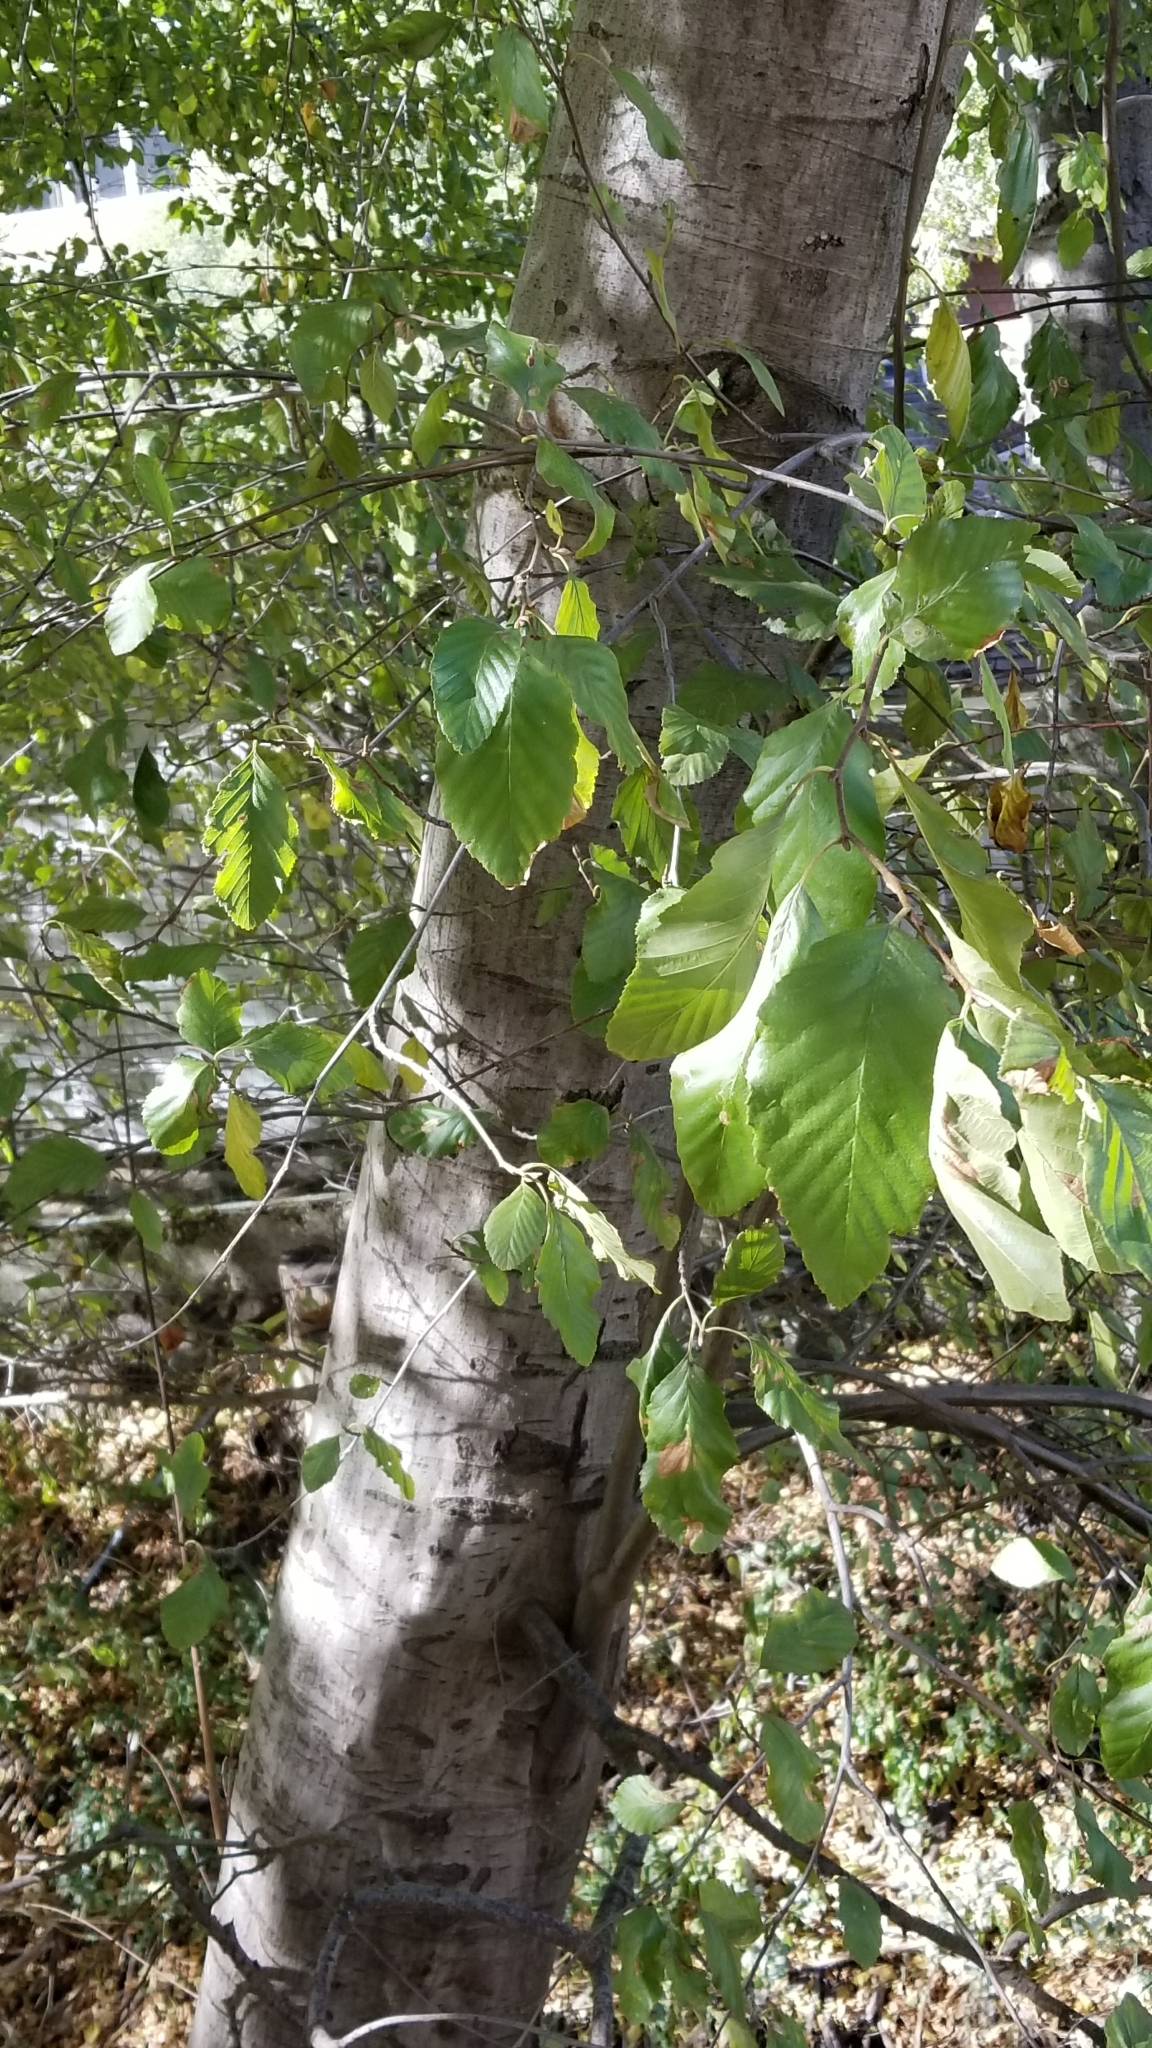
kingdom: Plantae
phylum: Tracheophyta
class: Magnoliopsida
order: Fagales
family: Betulaceae
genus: Alnus
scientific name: Alnus rhombifolia
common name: California alder
